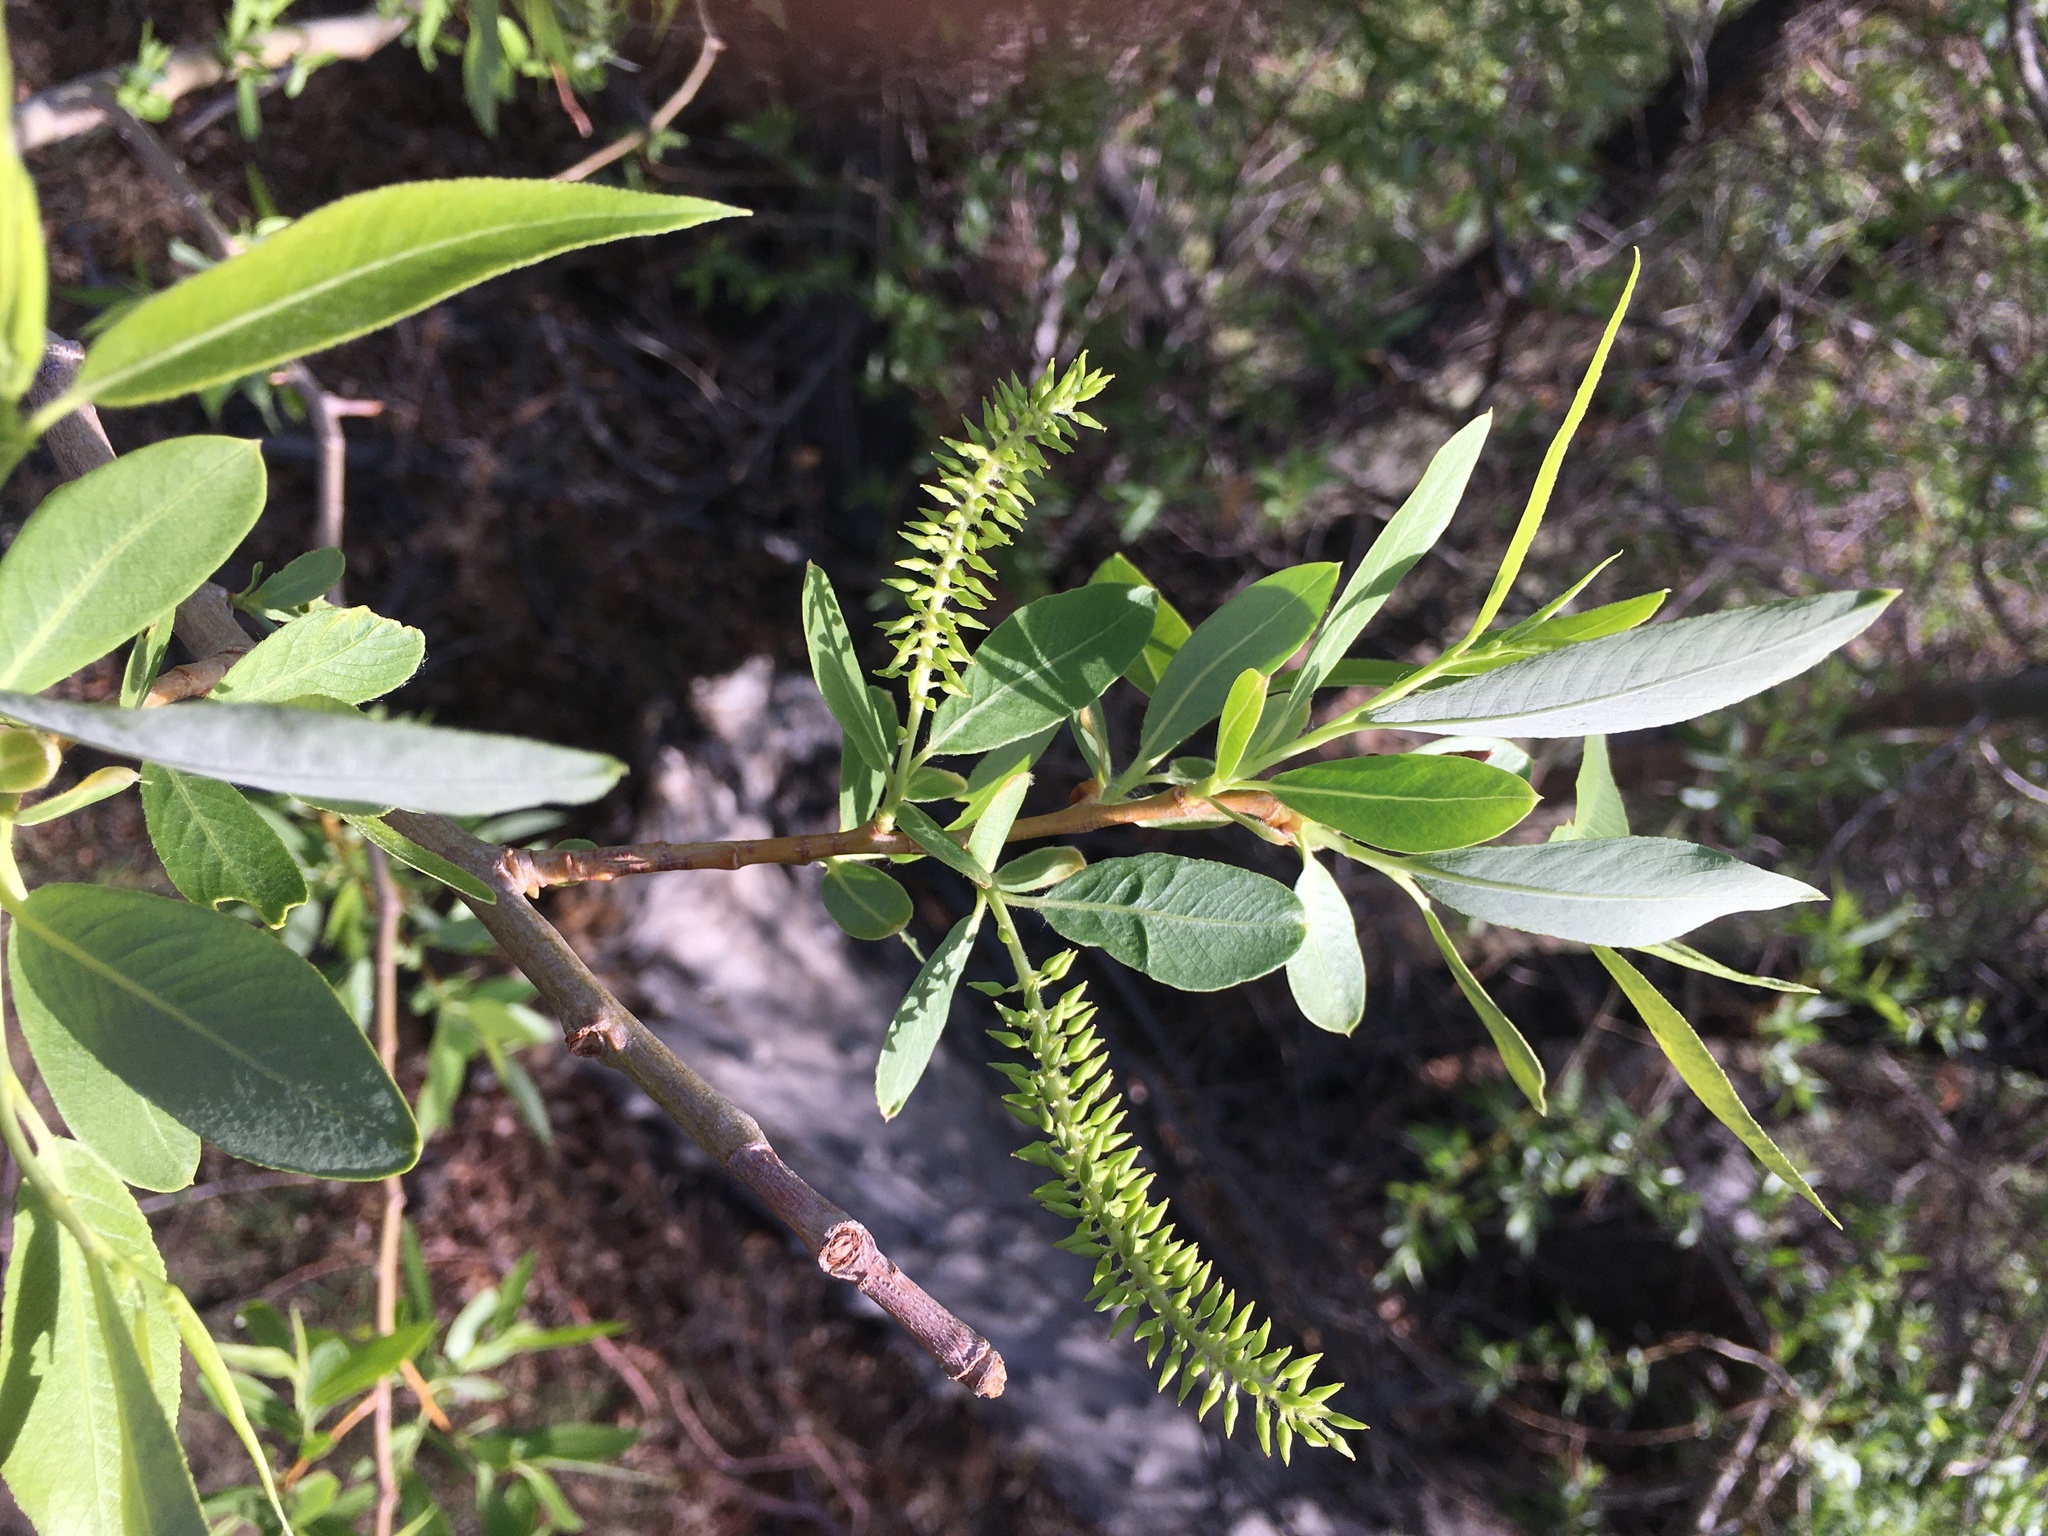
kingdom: Plantae
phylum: Tracheophyta
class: Magnoliopsida
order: Malpighiales
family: Salicaceae
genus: Salix
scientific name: Salix laevigata
